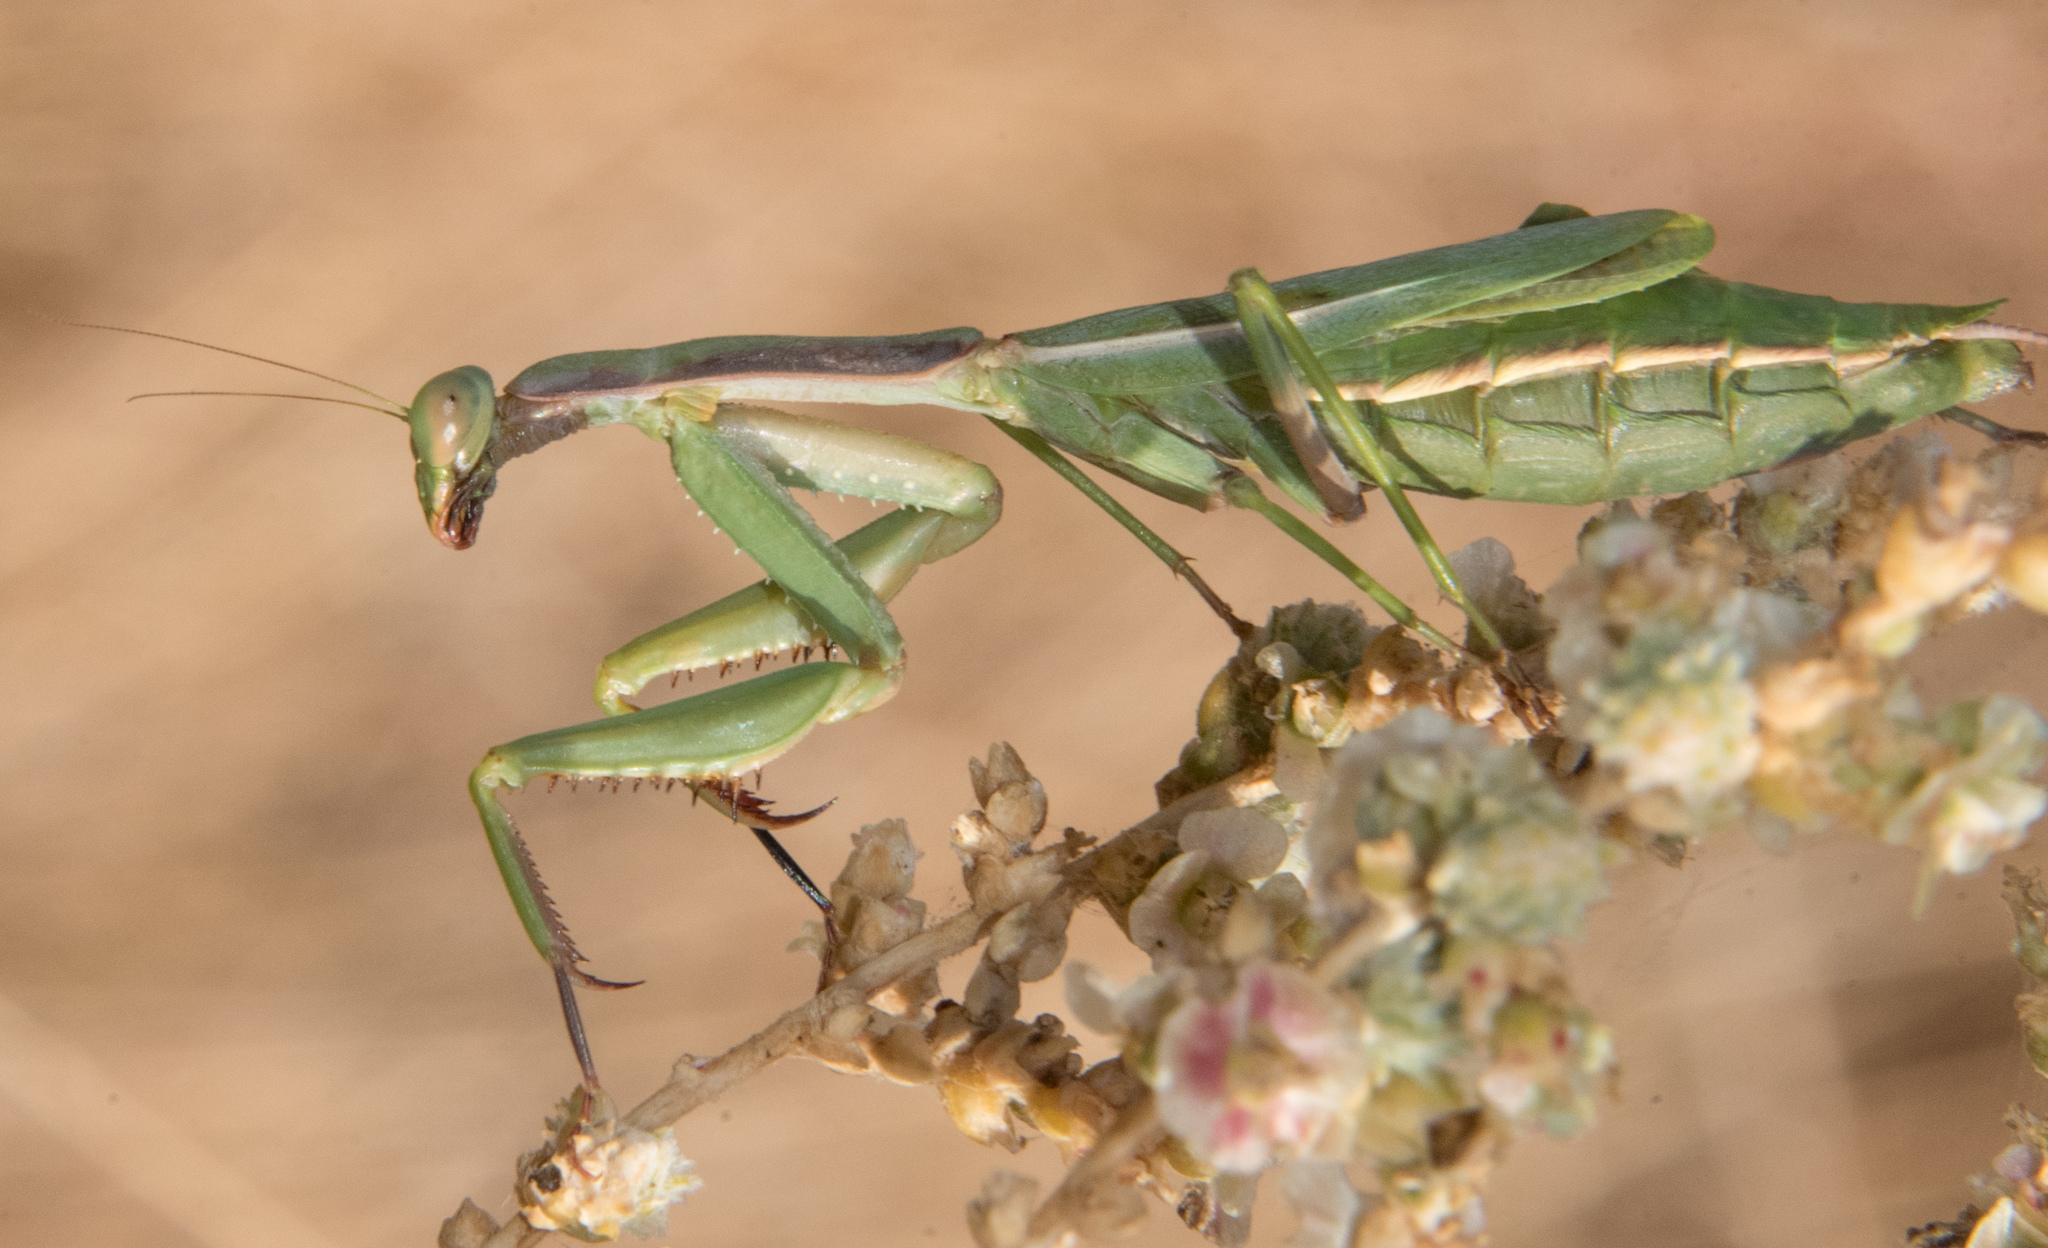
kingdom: Animalia
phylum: Arthropoda
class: Insecta
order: Mantodea
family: Eremiaphilidae
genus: Iris
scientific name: Iris oratoria
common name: Mediterranean mantis
